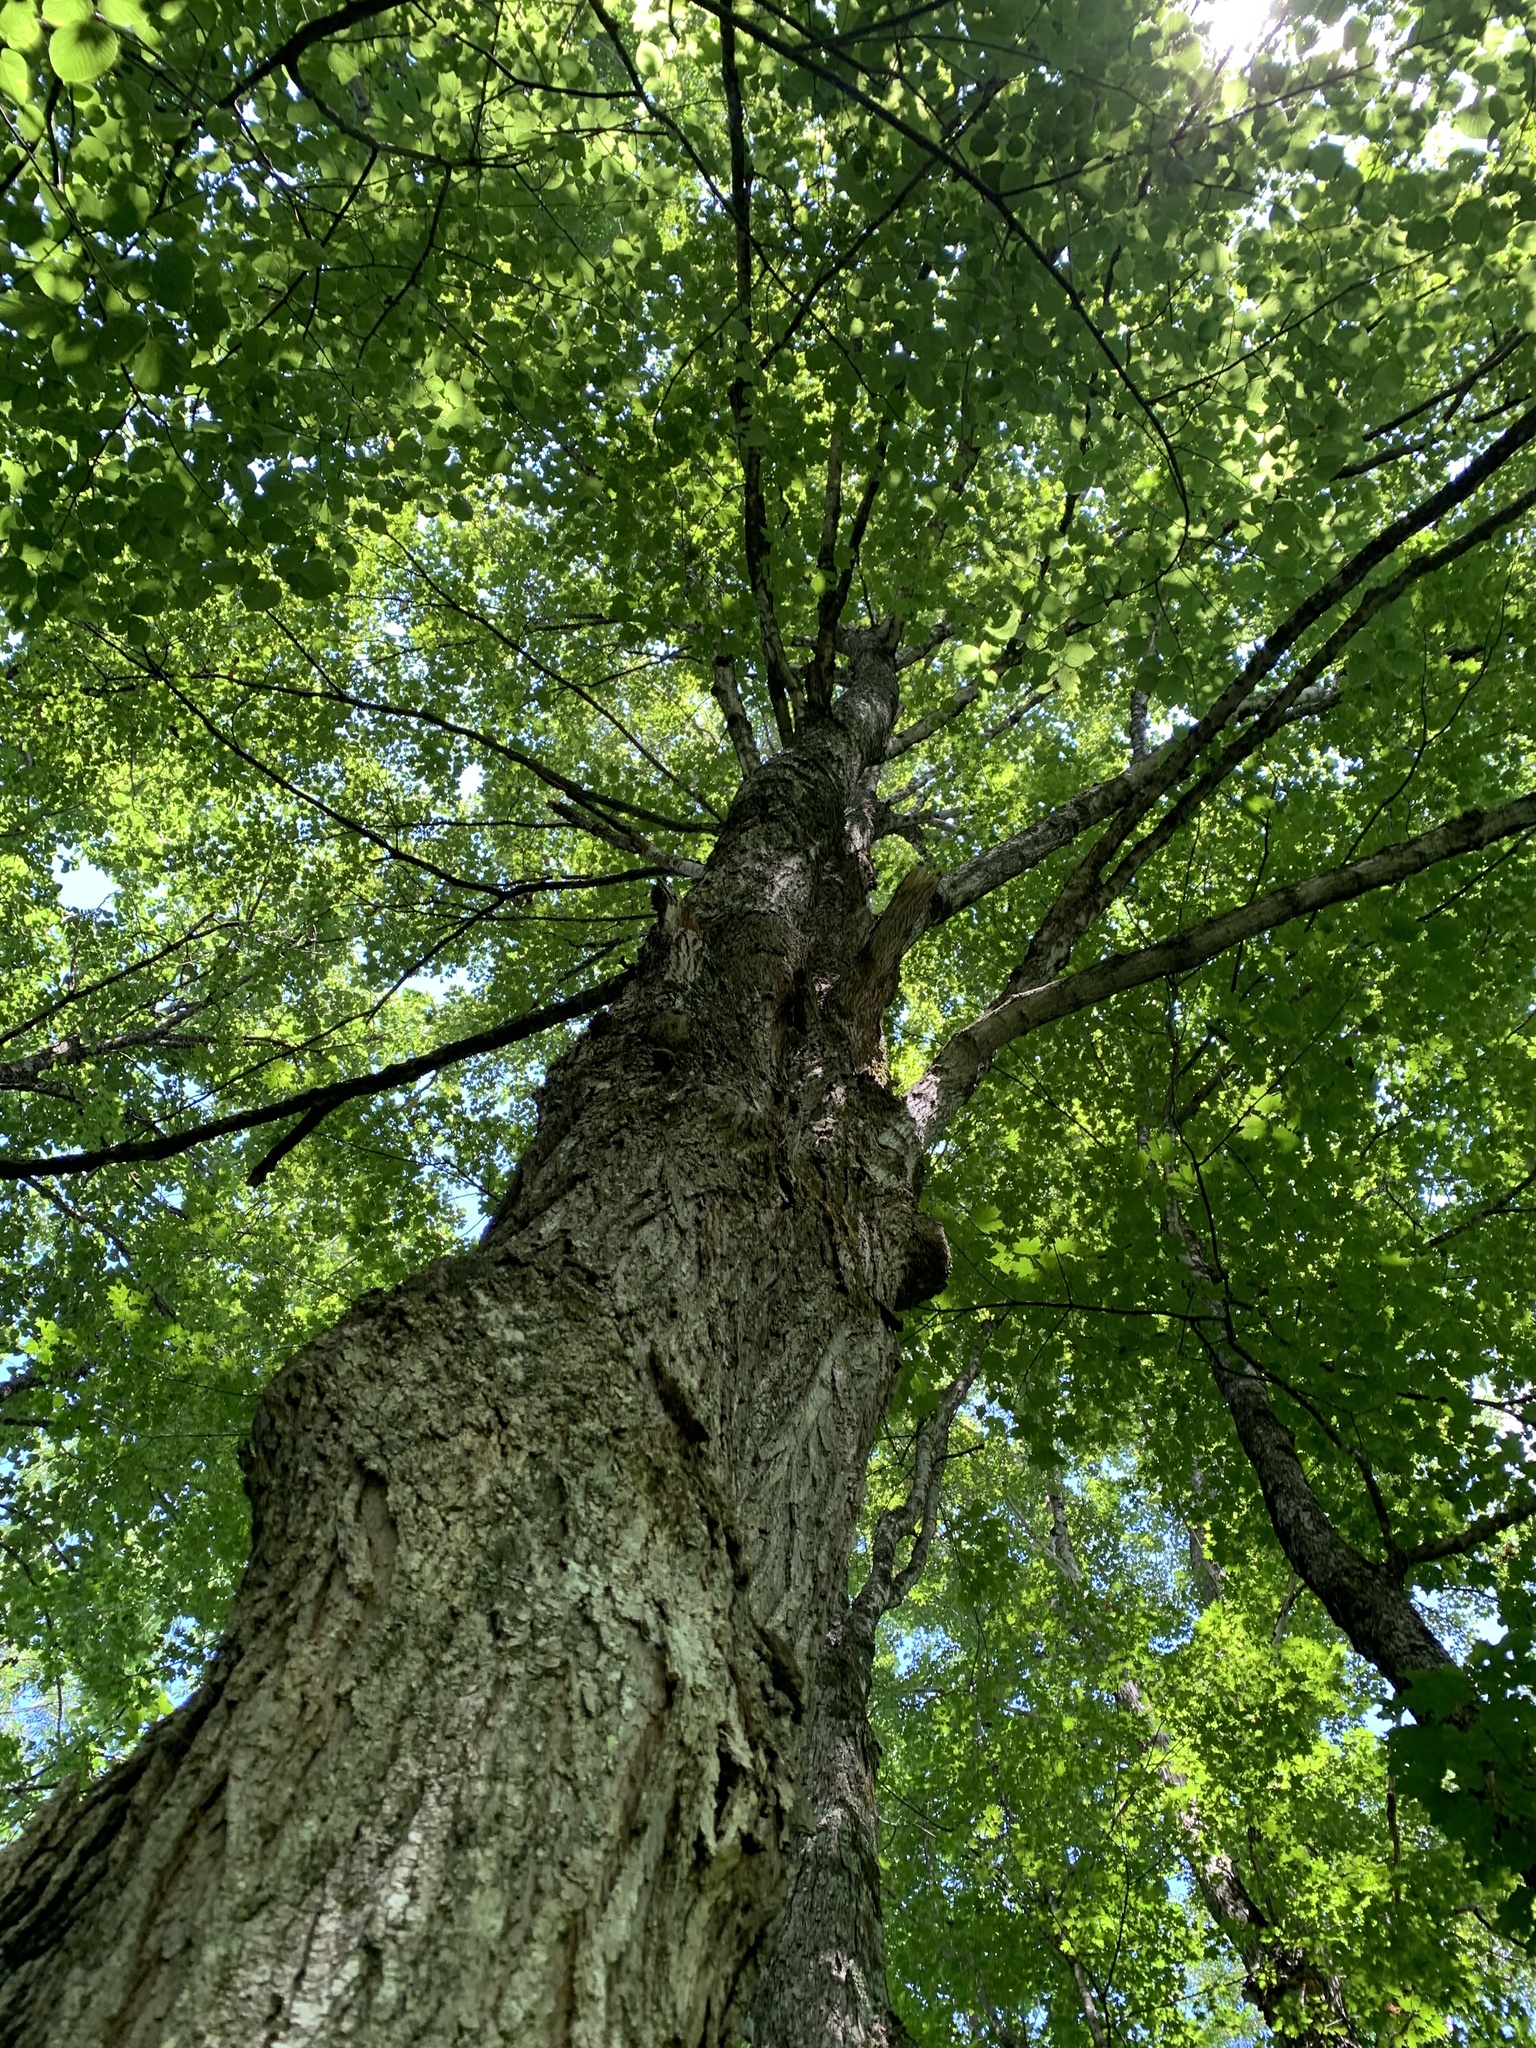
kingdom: Plantae
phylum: Tracheophyta
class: Magnoliopsida
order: Sapindales
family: Sapindaceae
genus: Acer
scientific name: Acer saccharum
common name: Sugar maple
